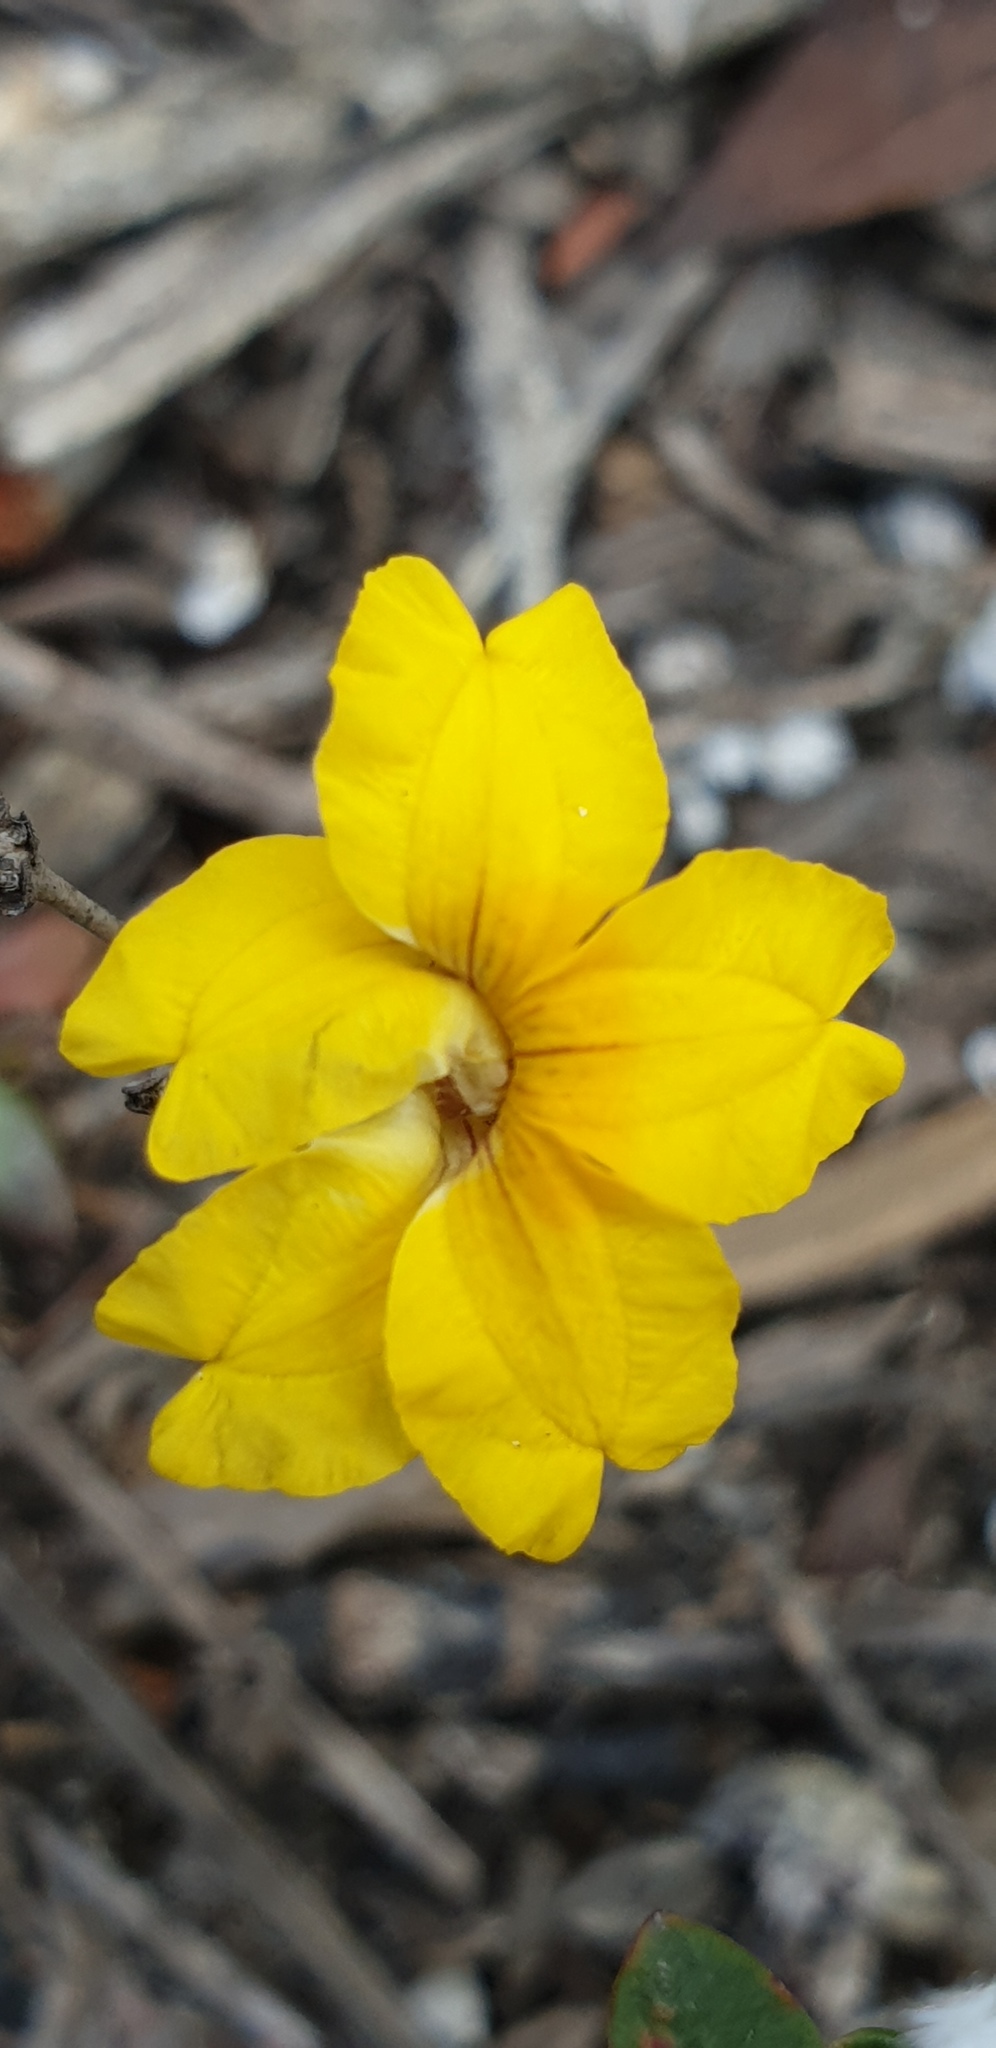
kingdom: Plantae
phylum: Tracheophyta
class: Magnoliopsida
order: Asterales
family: Goodeniaceae
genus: Goodenia
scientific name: Goodenia blackiana
